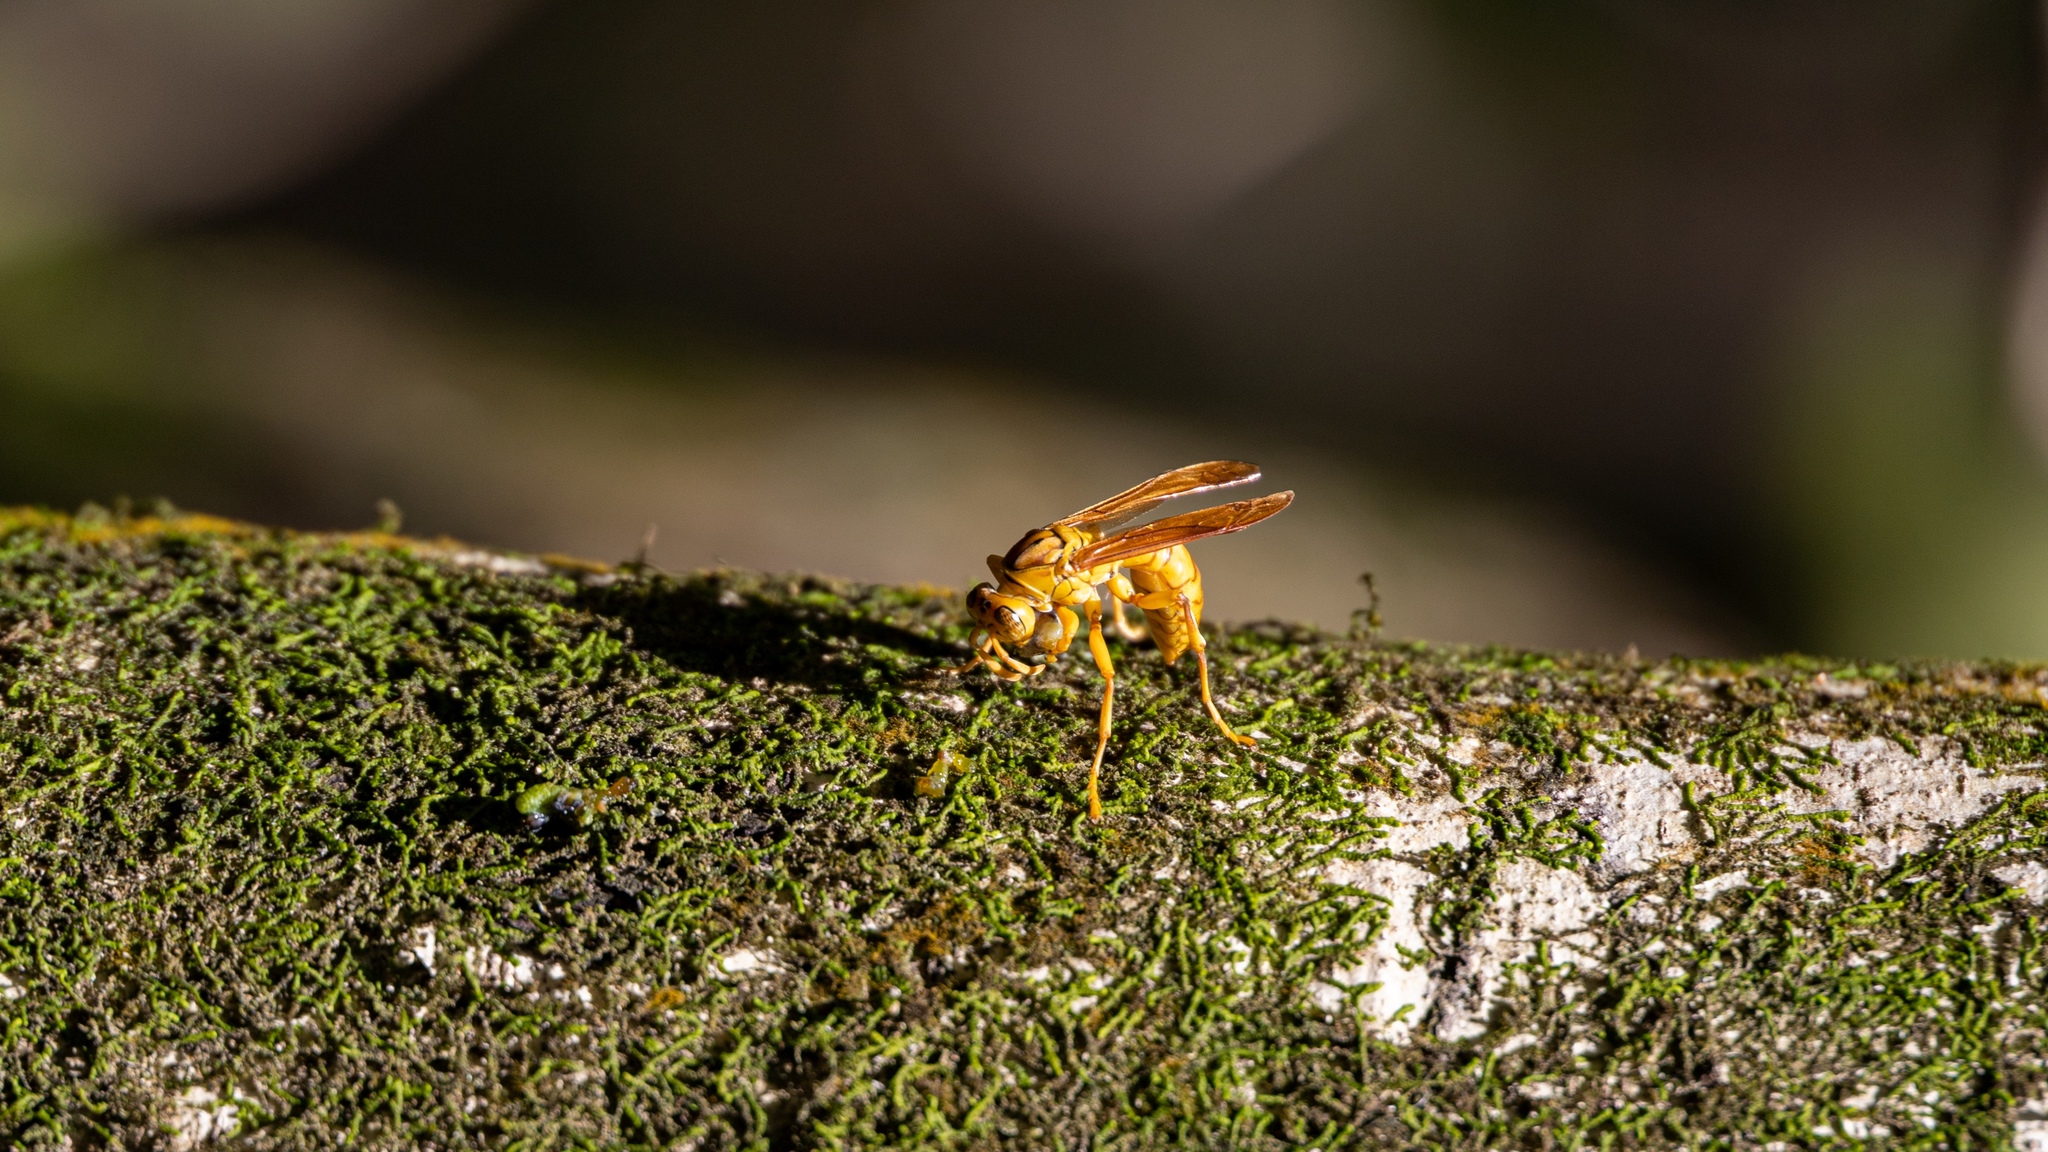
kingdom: Animalia
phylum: Arthropoda
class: Insecta
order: Hymenoptera
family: Eumenidae
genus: Polistes
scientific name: Polistes olivaceus
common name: Paper wasp
